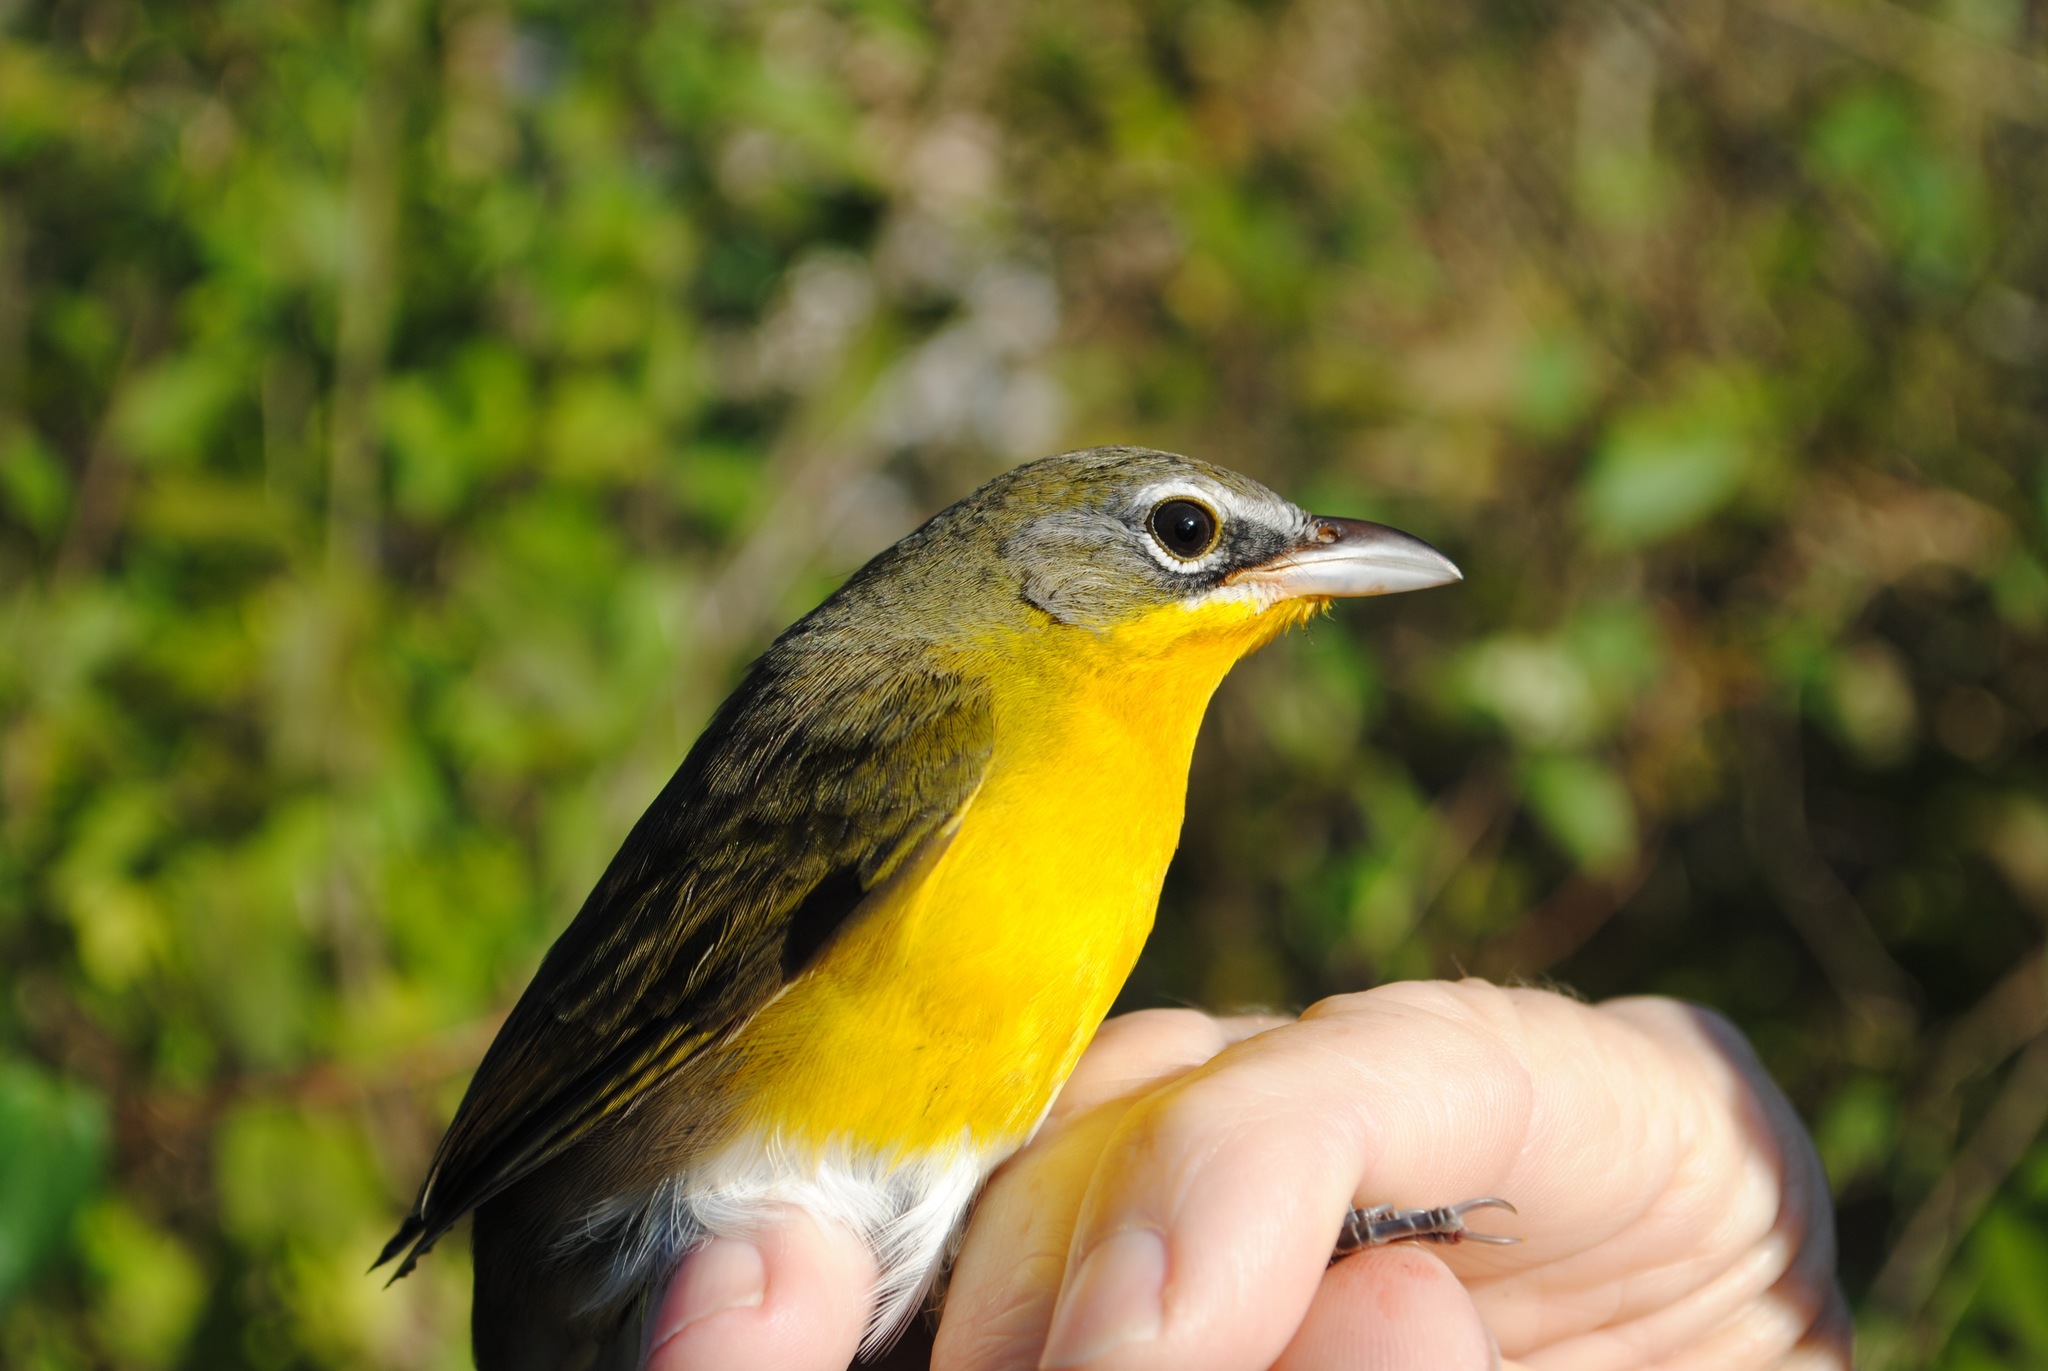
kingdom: Animalia
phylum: Chordata
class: Aves
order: Passeriformes
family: Parulidae
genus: Icteria
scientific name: Icteria virens
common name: Yellow-breasted chat
